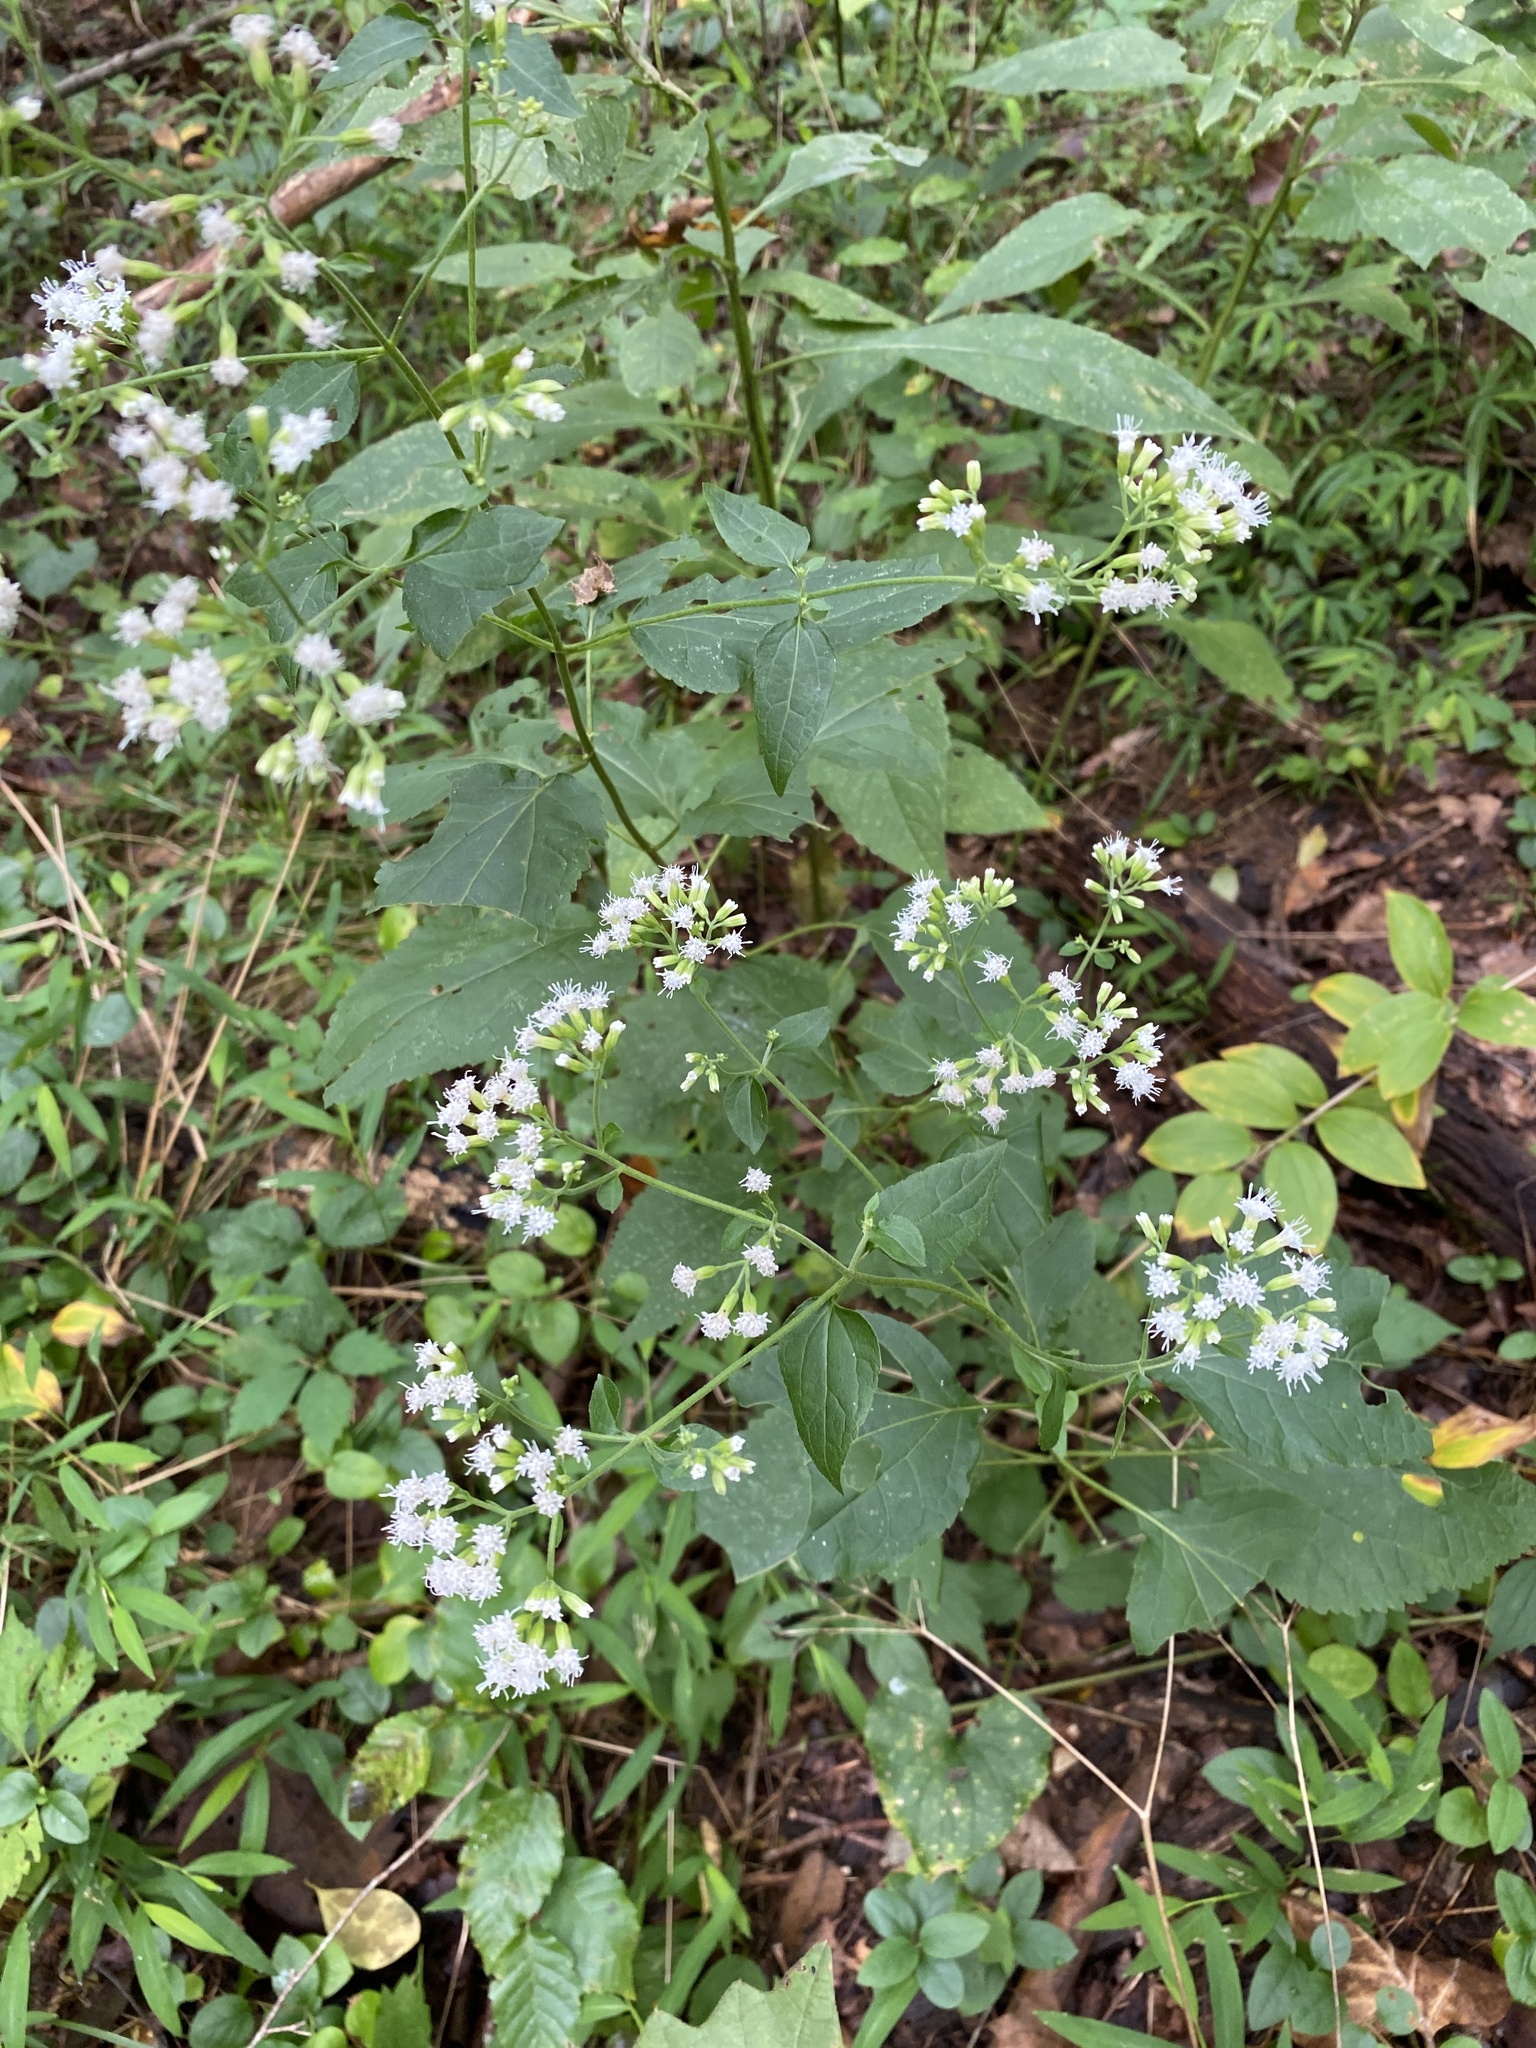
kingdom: Plantae
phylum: Tracheophyta
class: Magnoliopsida
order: Asterales
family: Asteraceae
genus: Ageratina
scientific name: Ageratina aromatica
